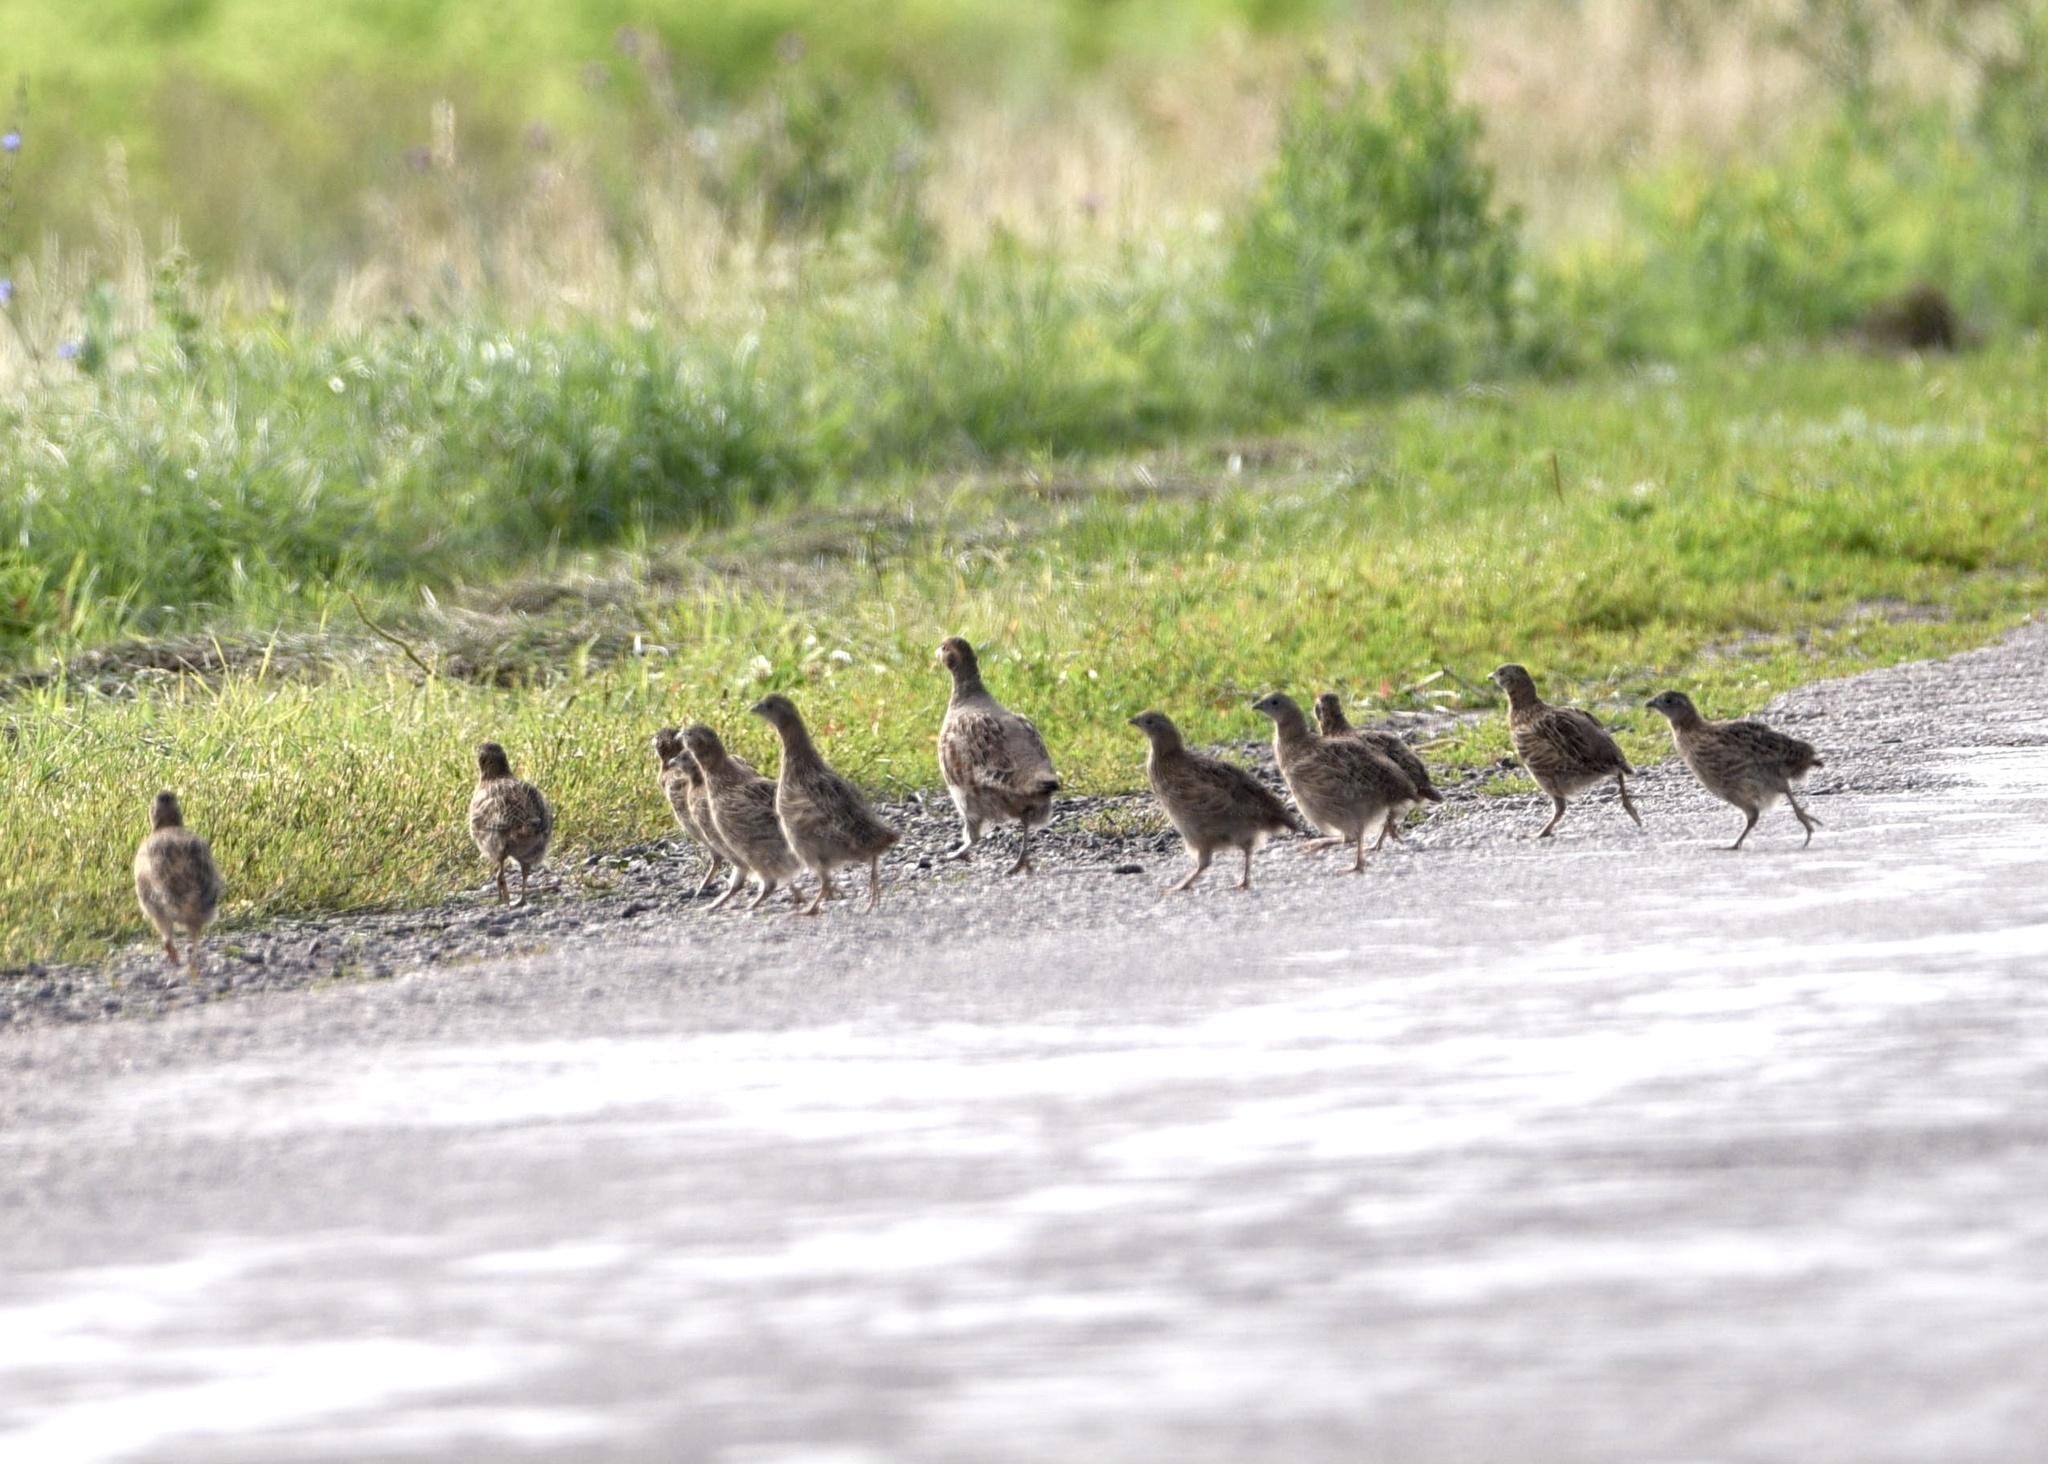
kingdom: Animalia
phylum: Chordata
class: Aves
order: Galliformes
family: Phasianidae
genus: Perdix
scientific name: Perdix perdix
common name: Grey partridge
